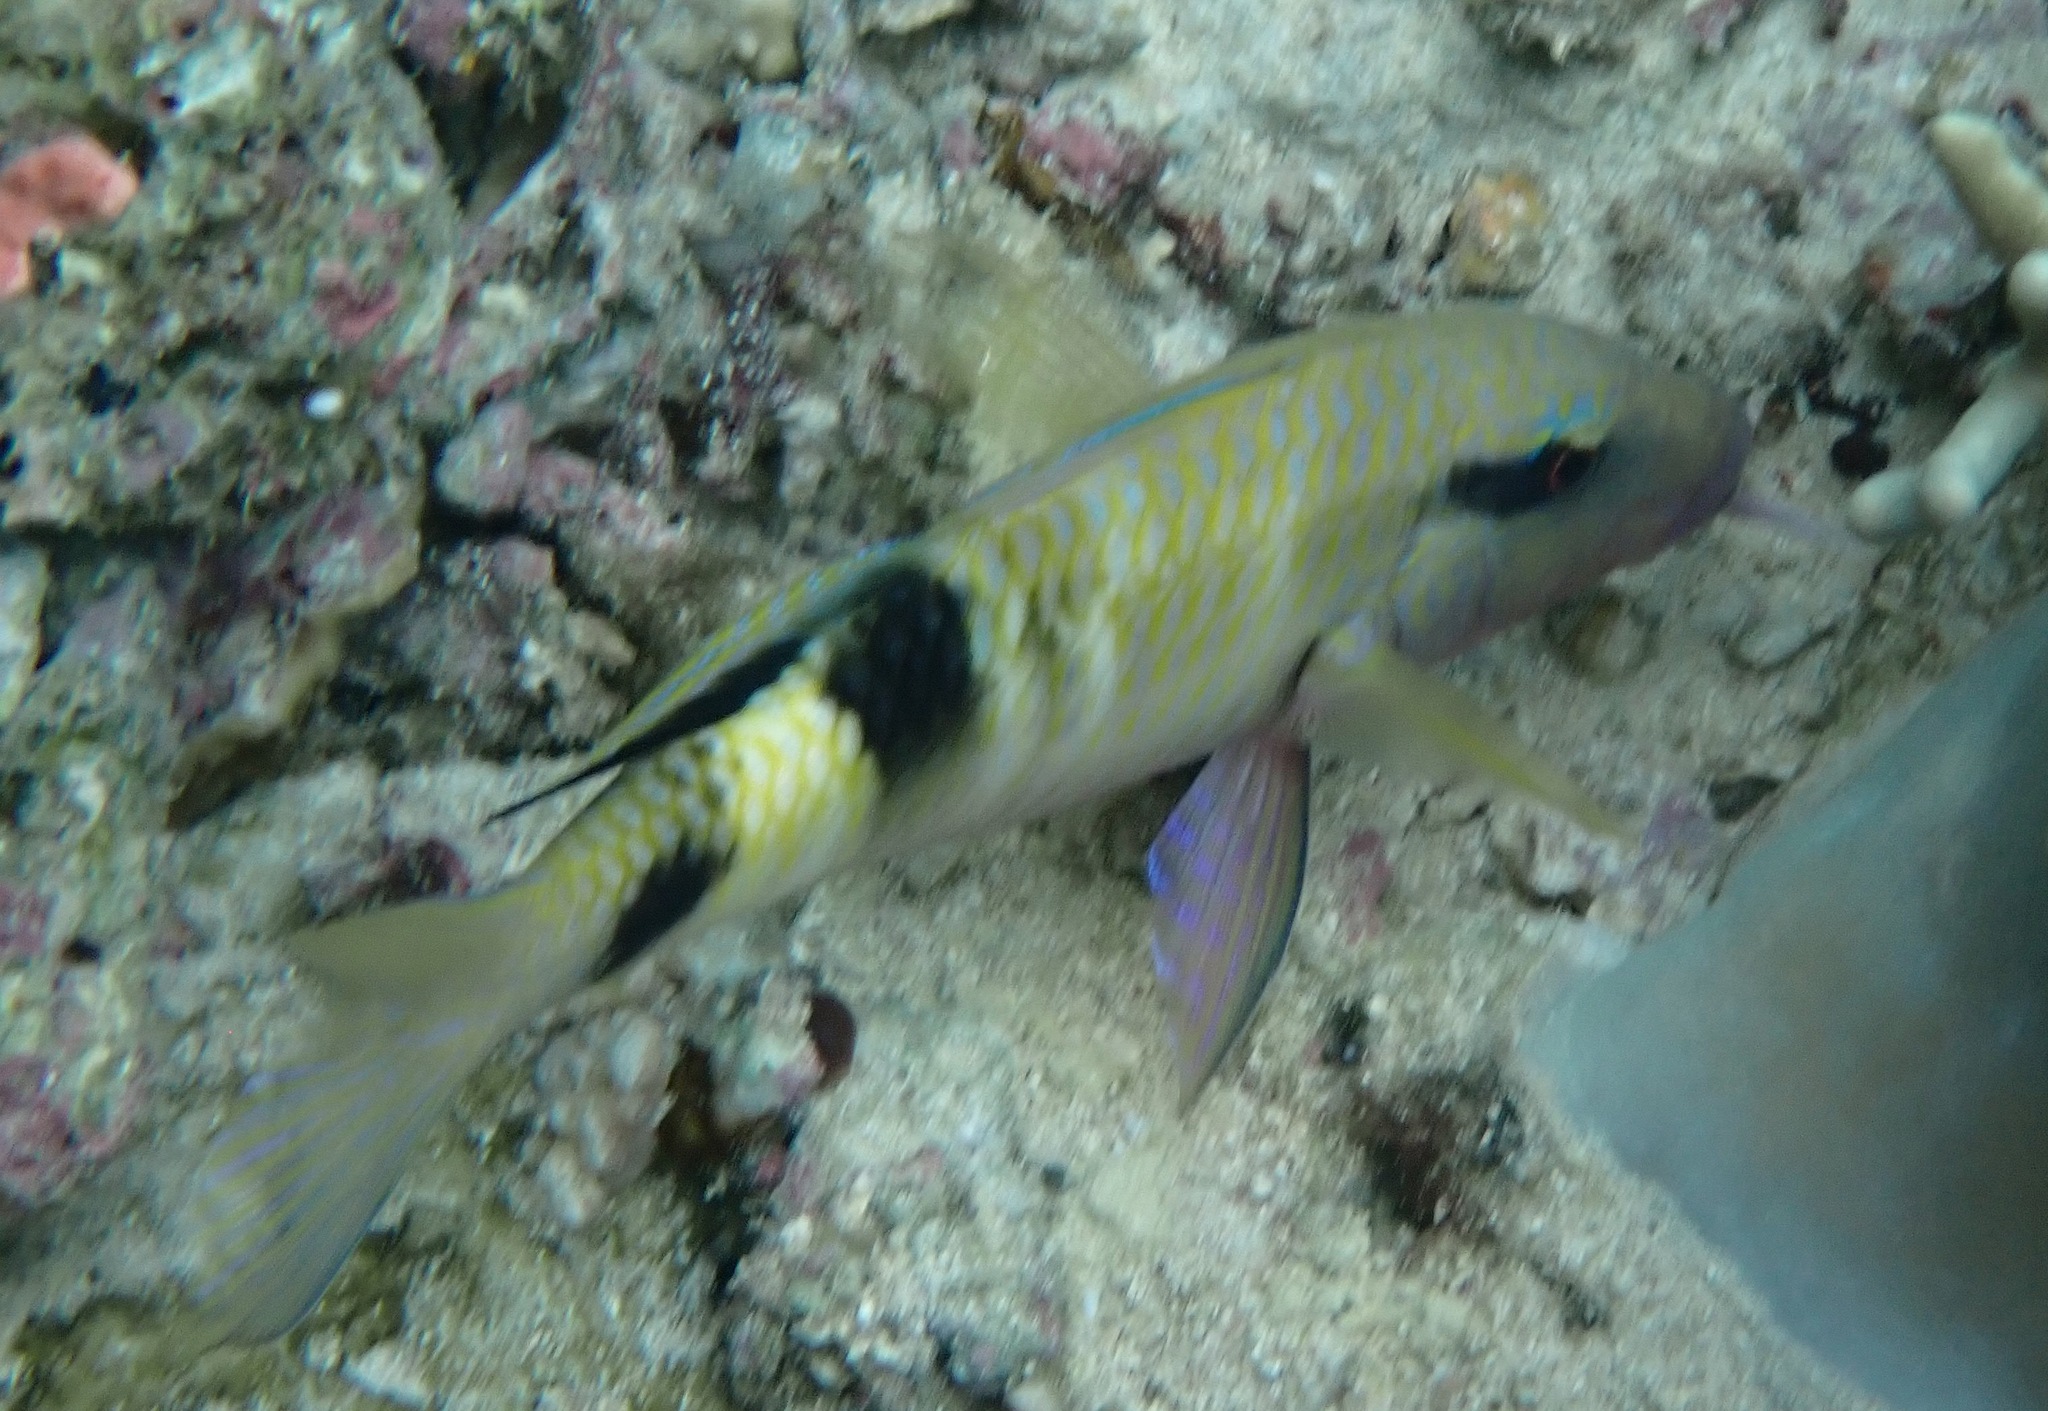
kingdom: Animalia
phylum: Chordata
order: Perciformes
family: Mullidae
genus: Parupeneus
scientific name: Parupeneus multifasciatus
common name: Manybar goatfish
